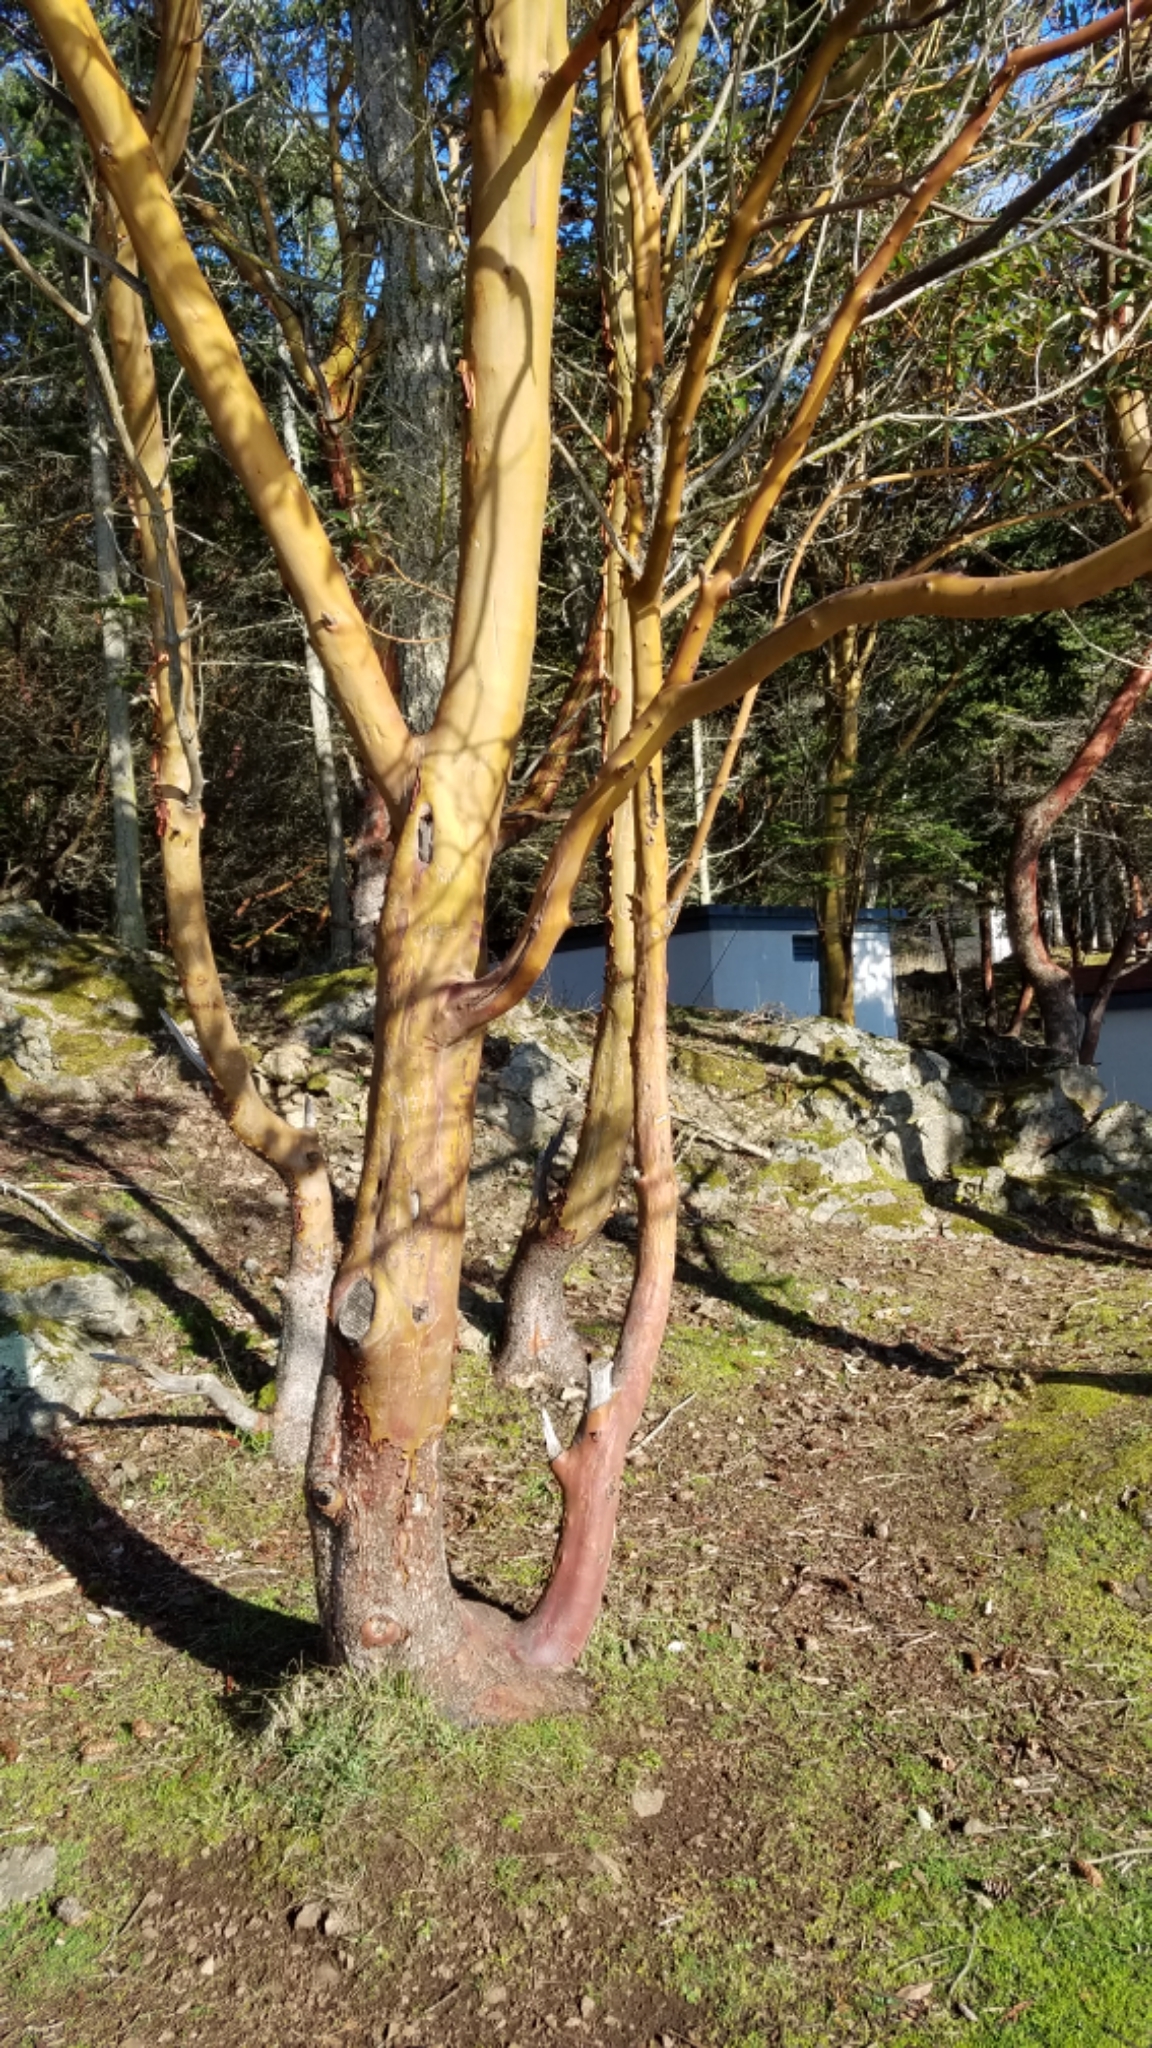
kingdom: Plantae
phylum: Tracheophyta
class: Magnoliopsida
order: Ericales
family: Ericaceae
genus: Arbutus
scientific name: Arbutus menziesii
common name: Pacific madrone
